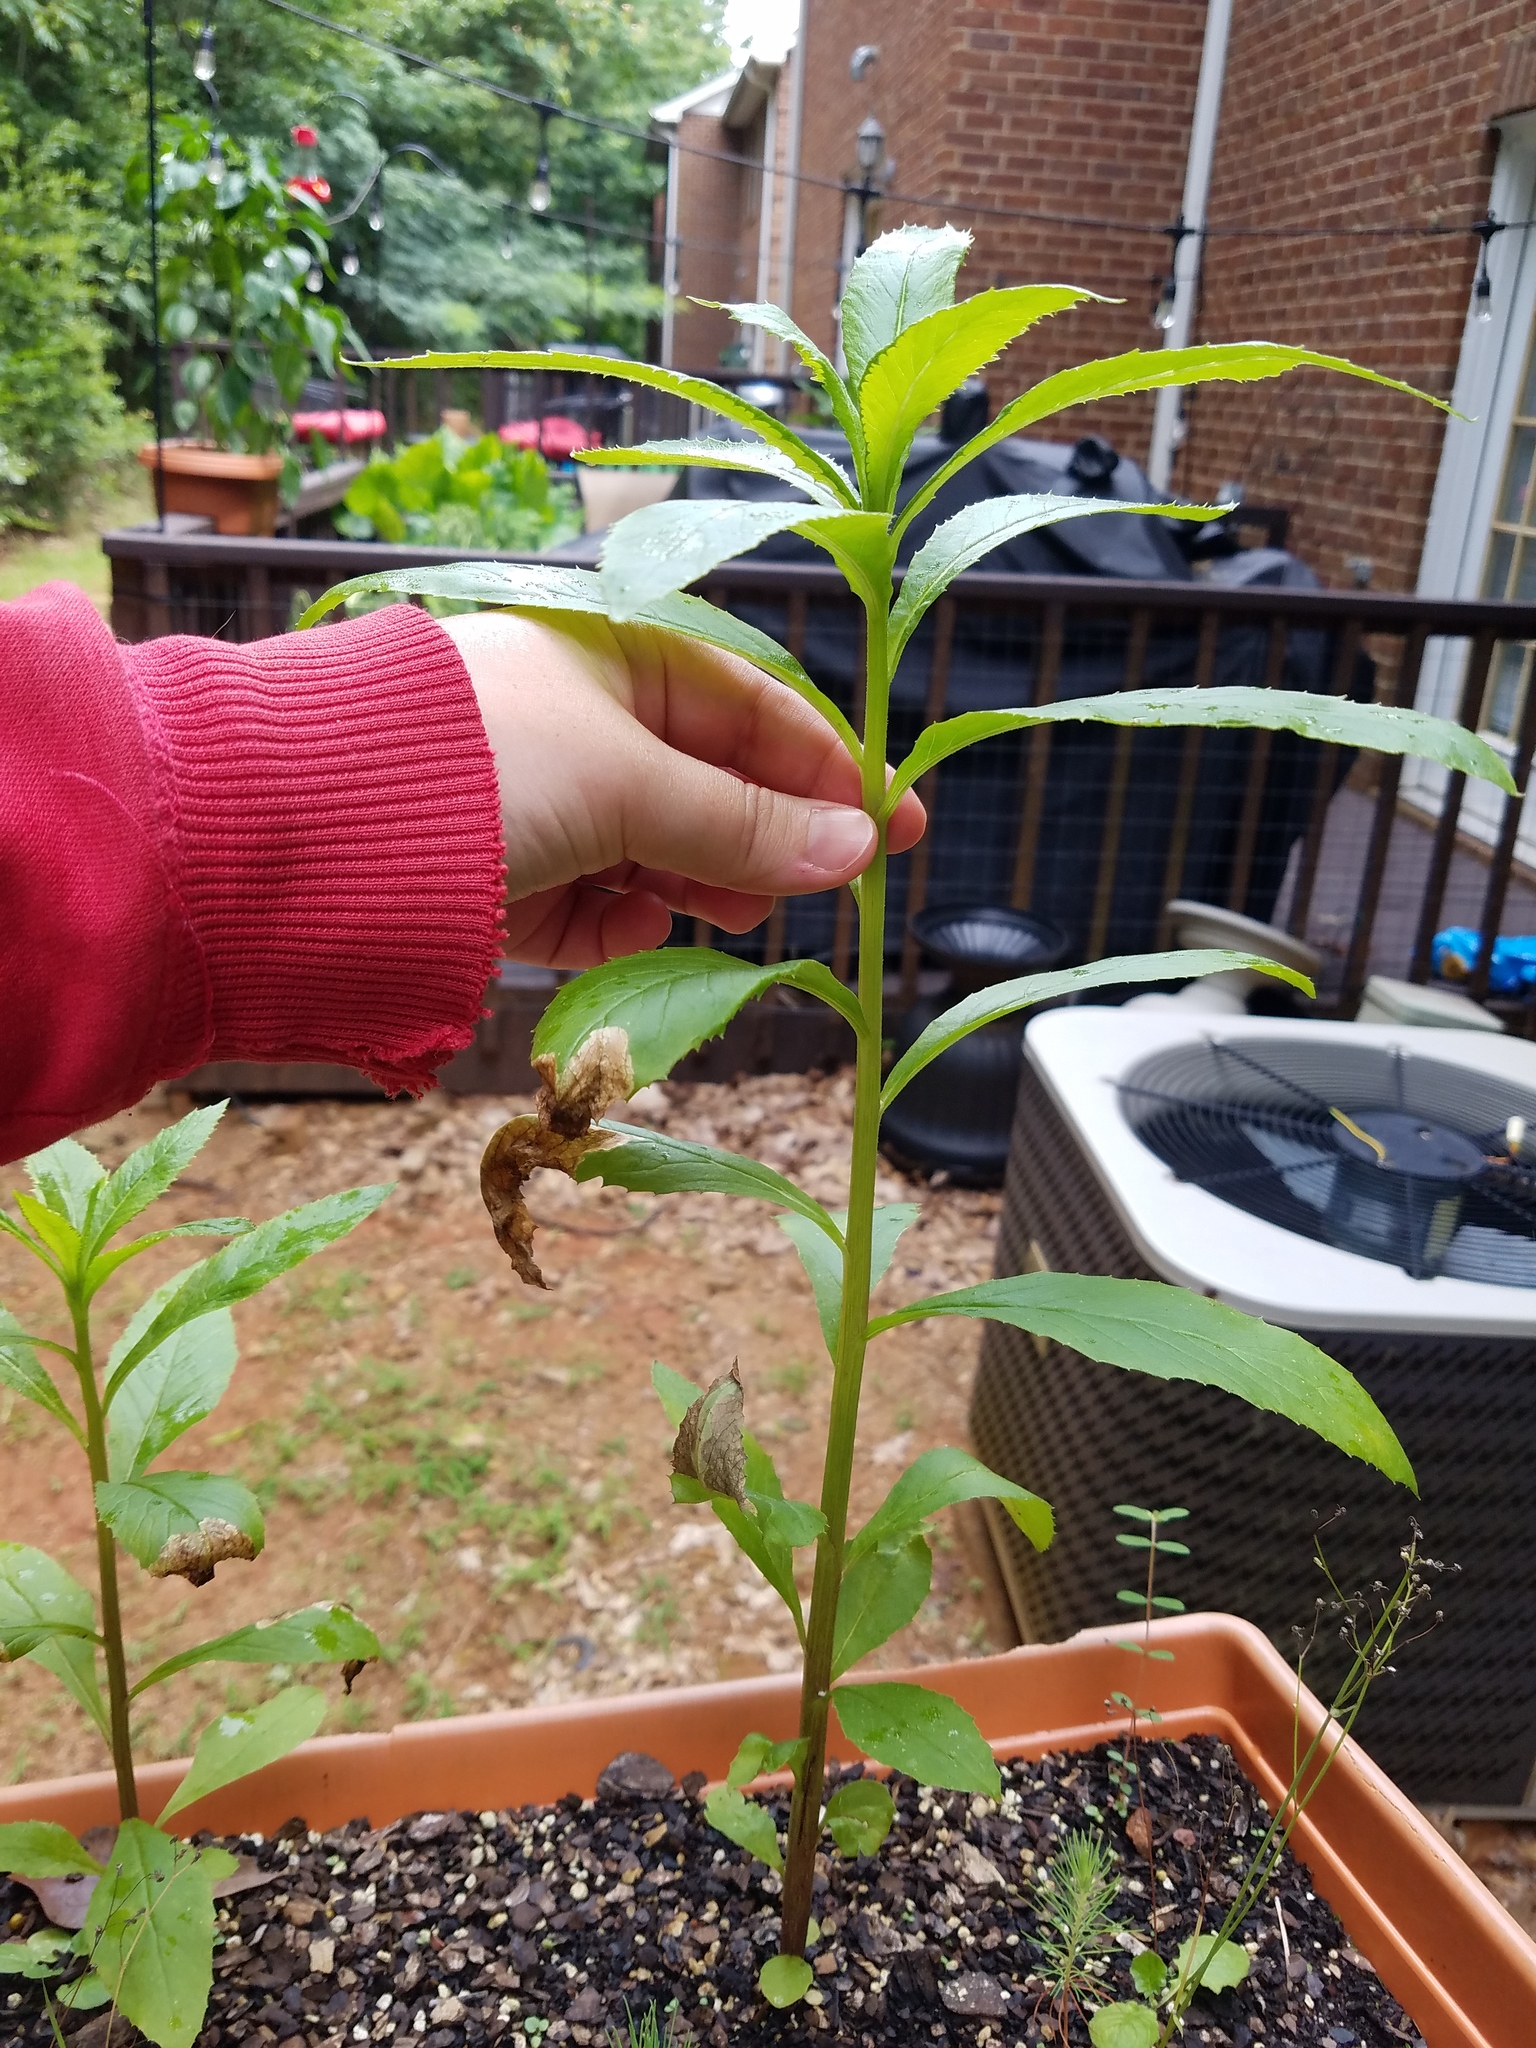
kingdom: Plantae
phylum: Tracheophyta
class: Magnoliopsida
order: Asterales
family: Asteraceae
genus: Erechtites
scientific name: Erechtites hieraciifolius
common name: American burnweed
